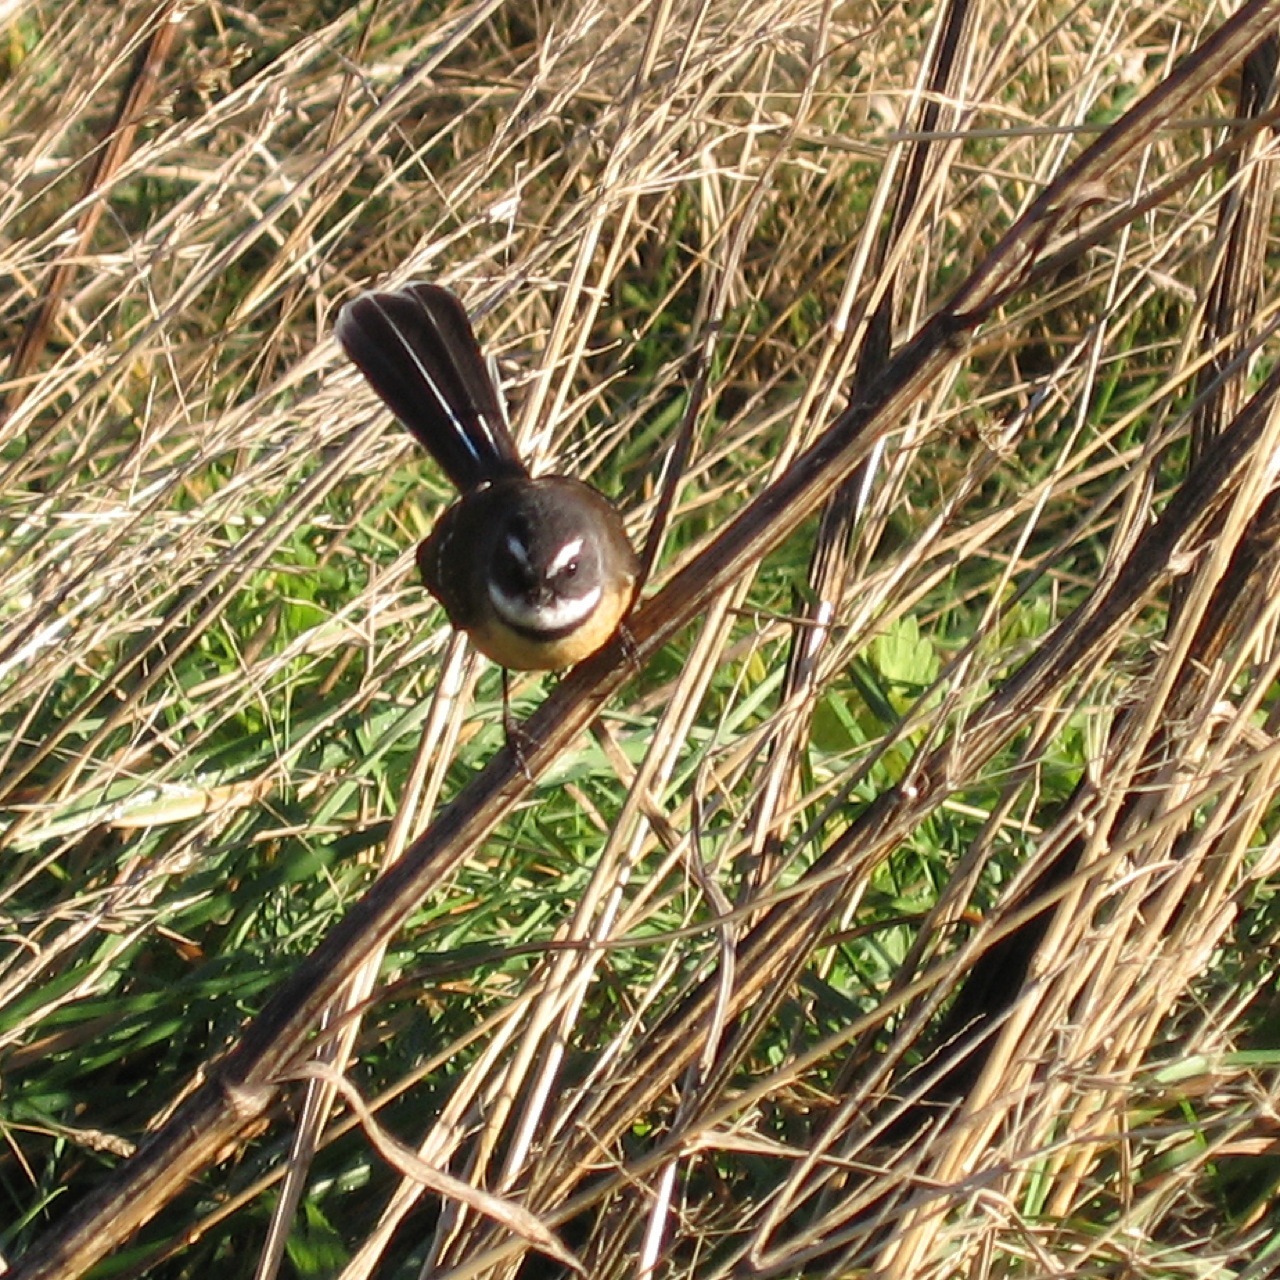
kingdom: Animalia
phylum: Chordata
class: Aves
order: Passeriformes
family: Rhipiduridae
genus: Rhipidura
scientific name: Rhipidura fuliginosa
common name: New zealand fantail
